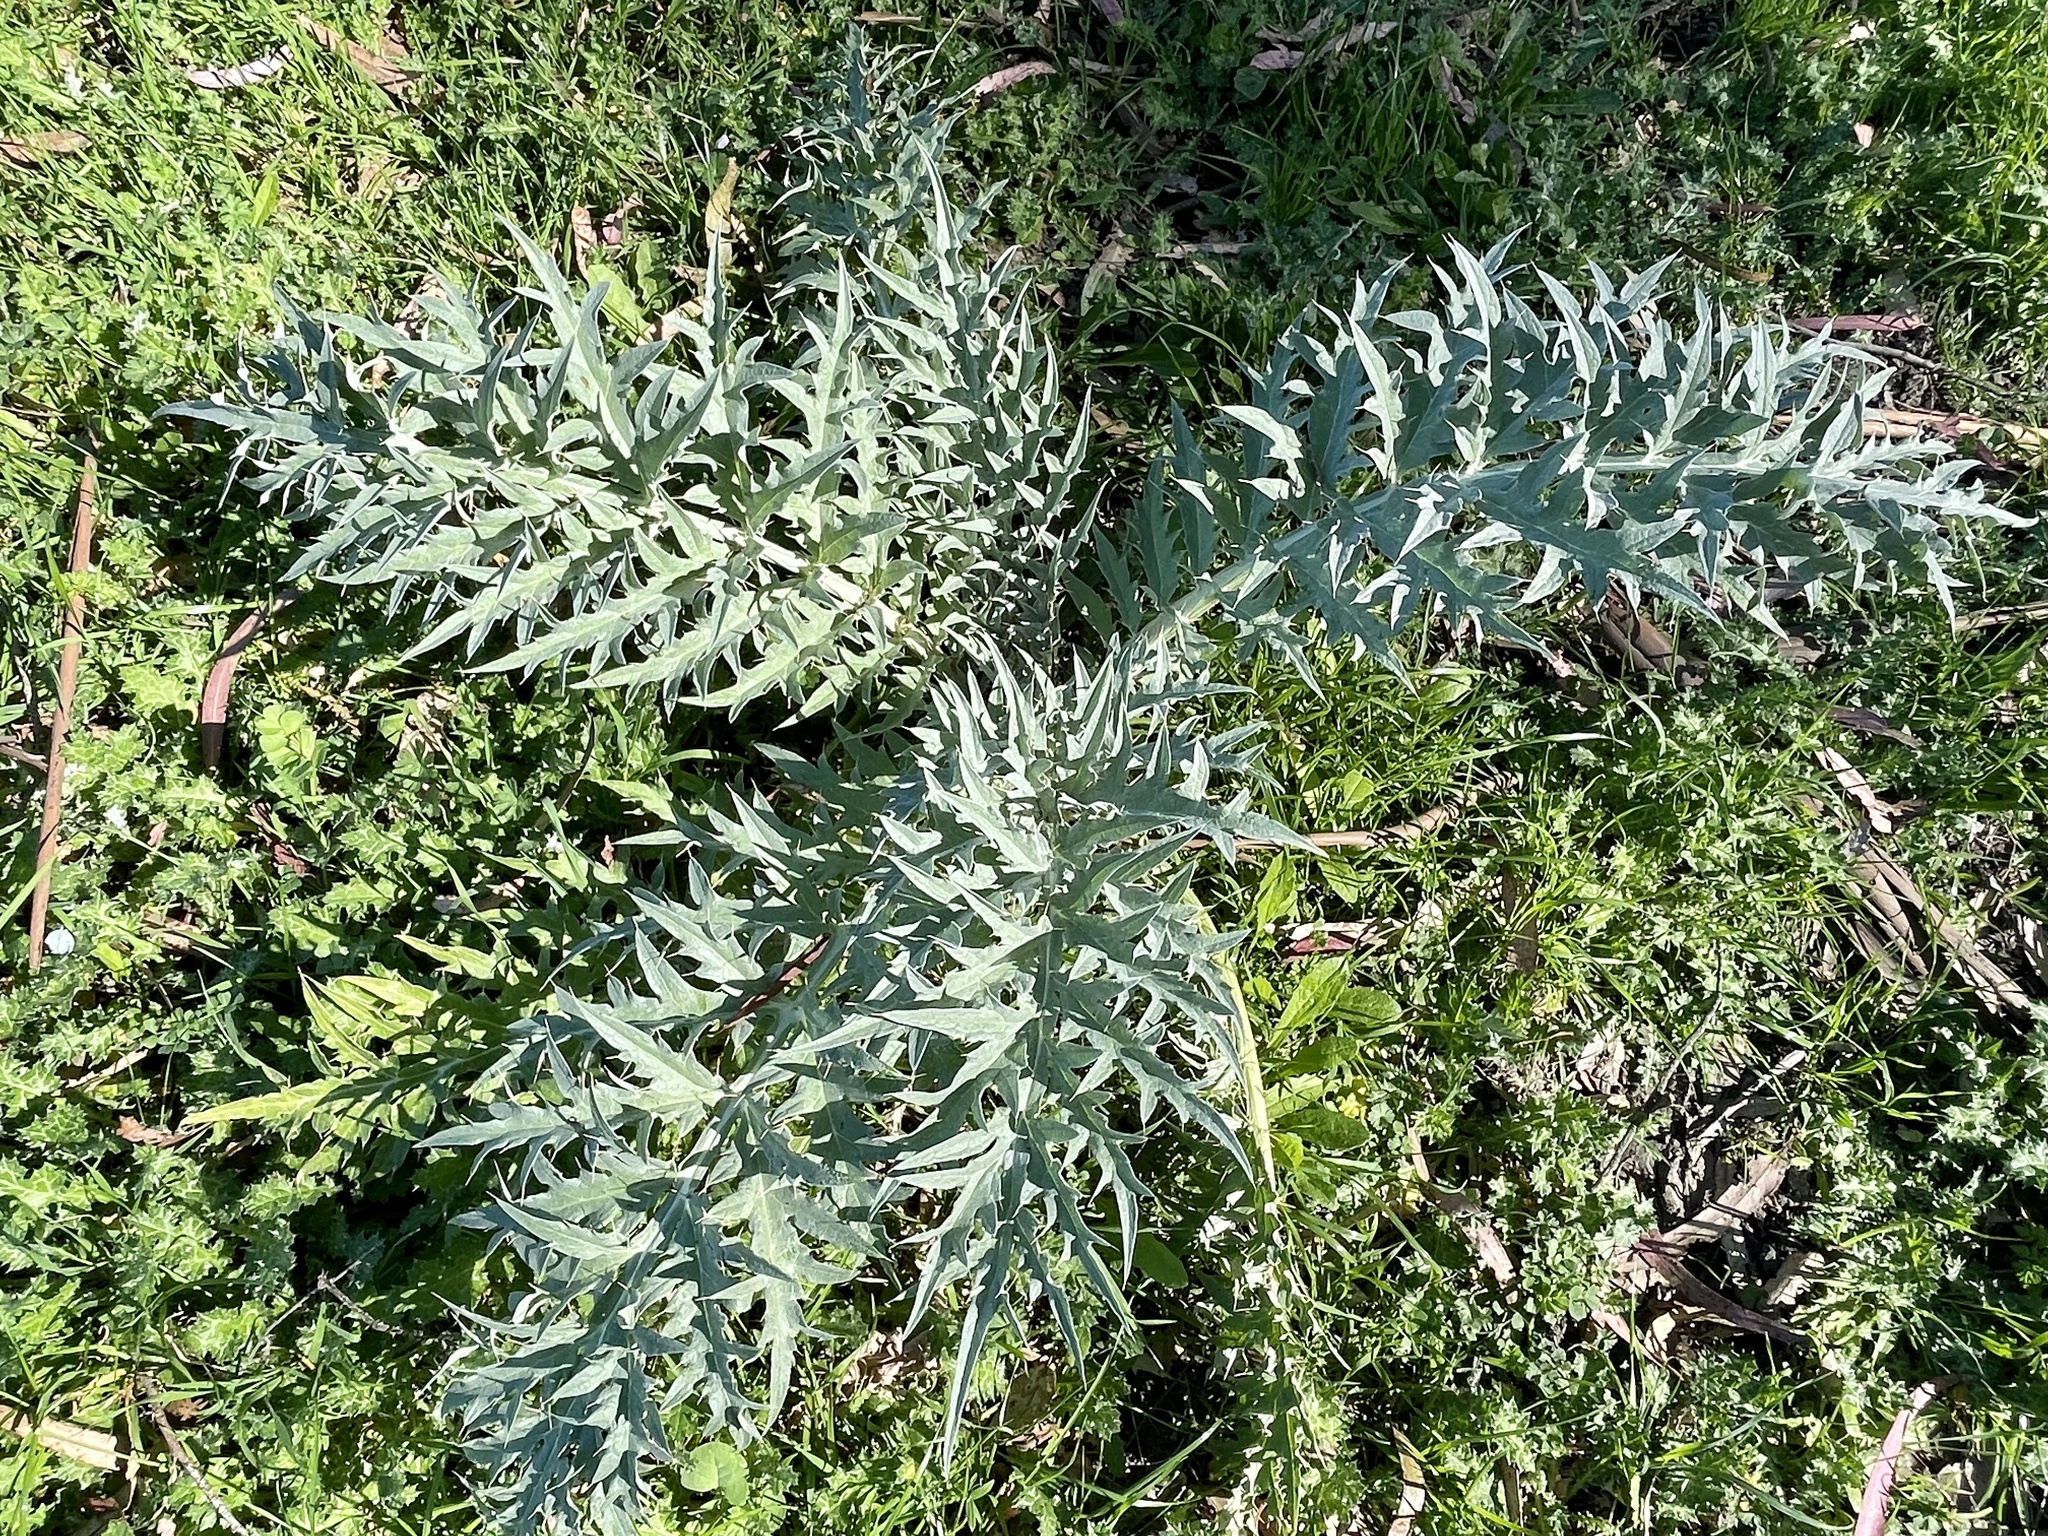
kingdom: Plantae
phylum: Tracheophyta
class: Magnoliopsida
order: Asterales
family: Asteraceae
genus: Cynara
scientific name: Cynara cardunculus
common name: Globe artichoke
